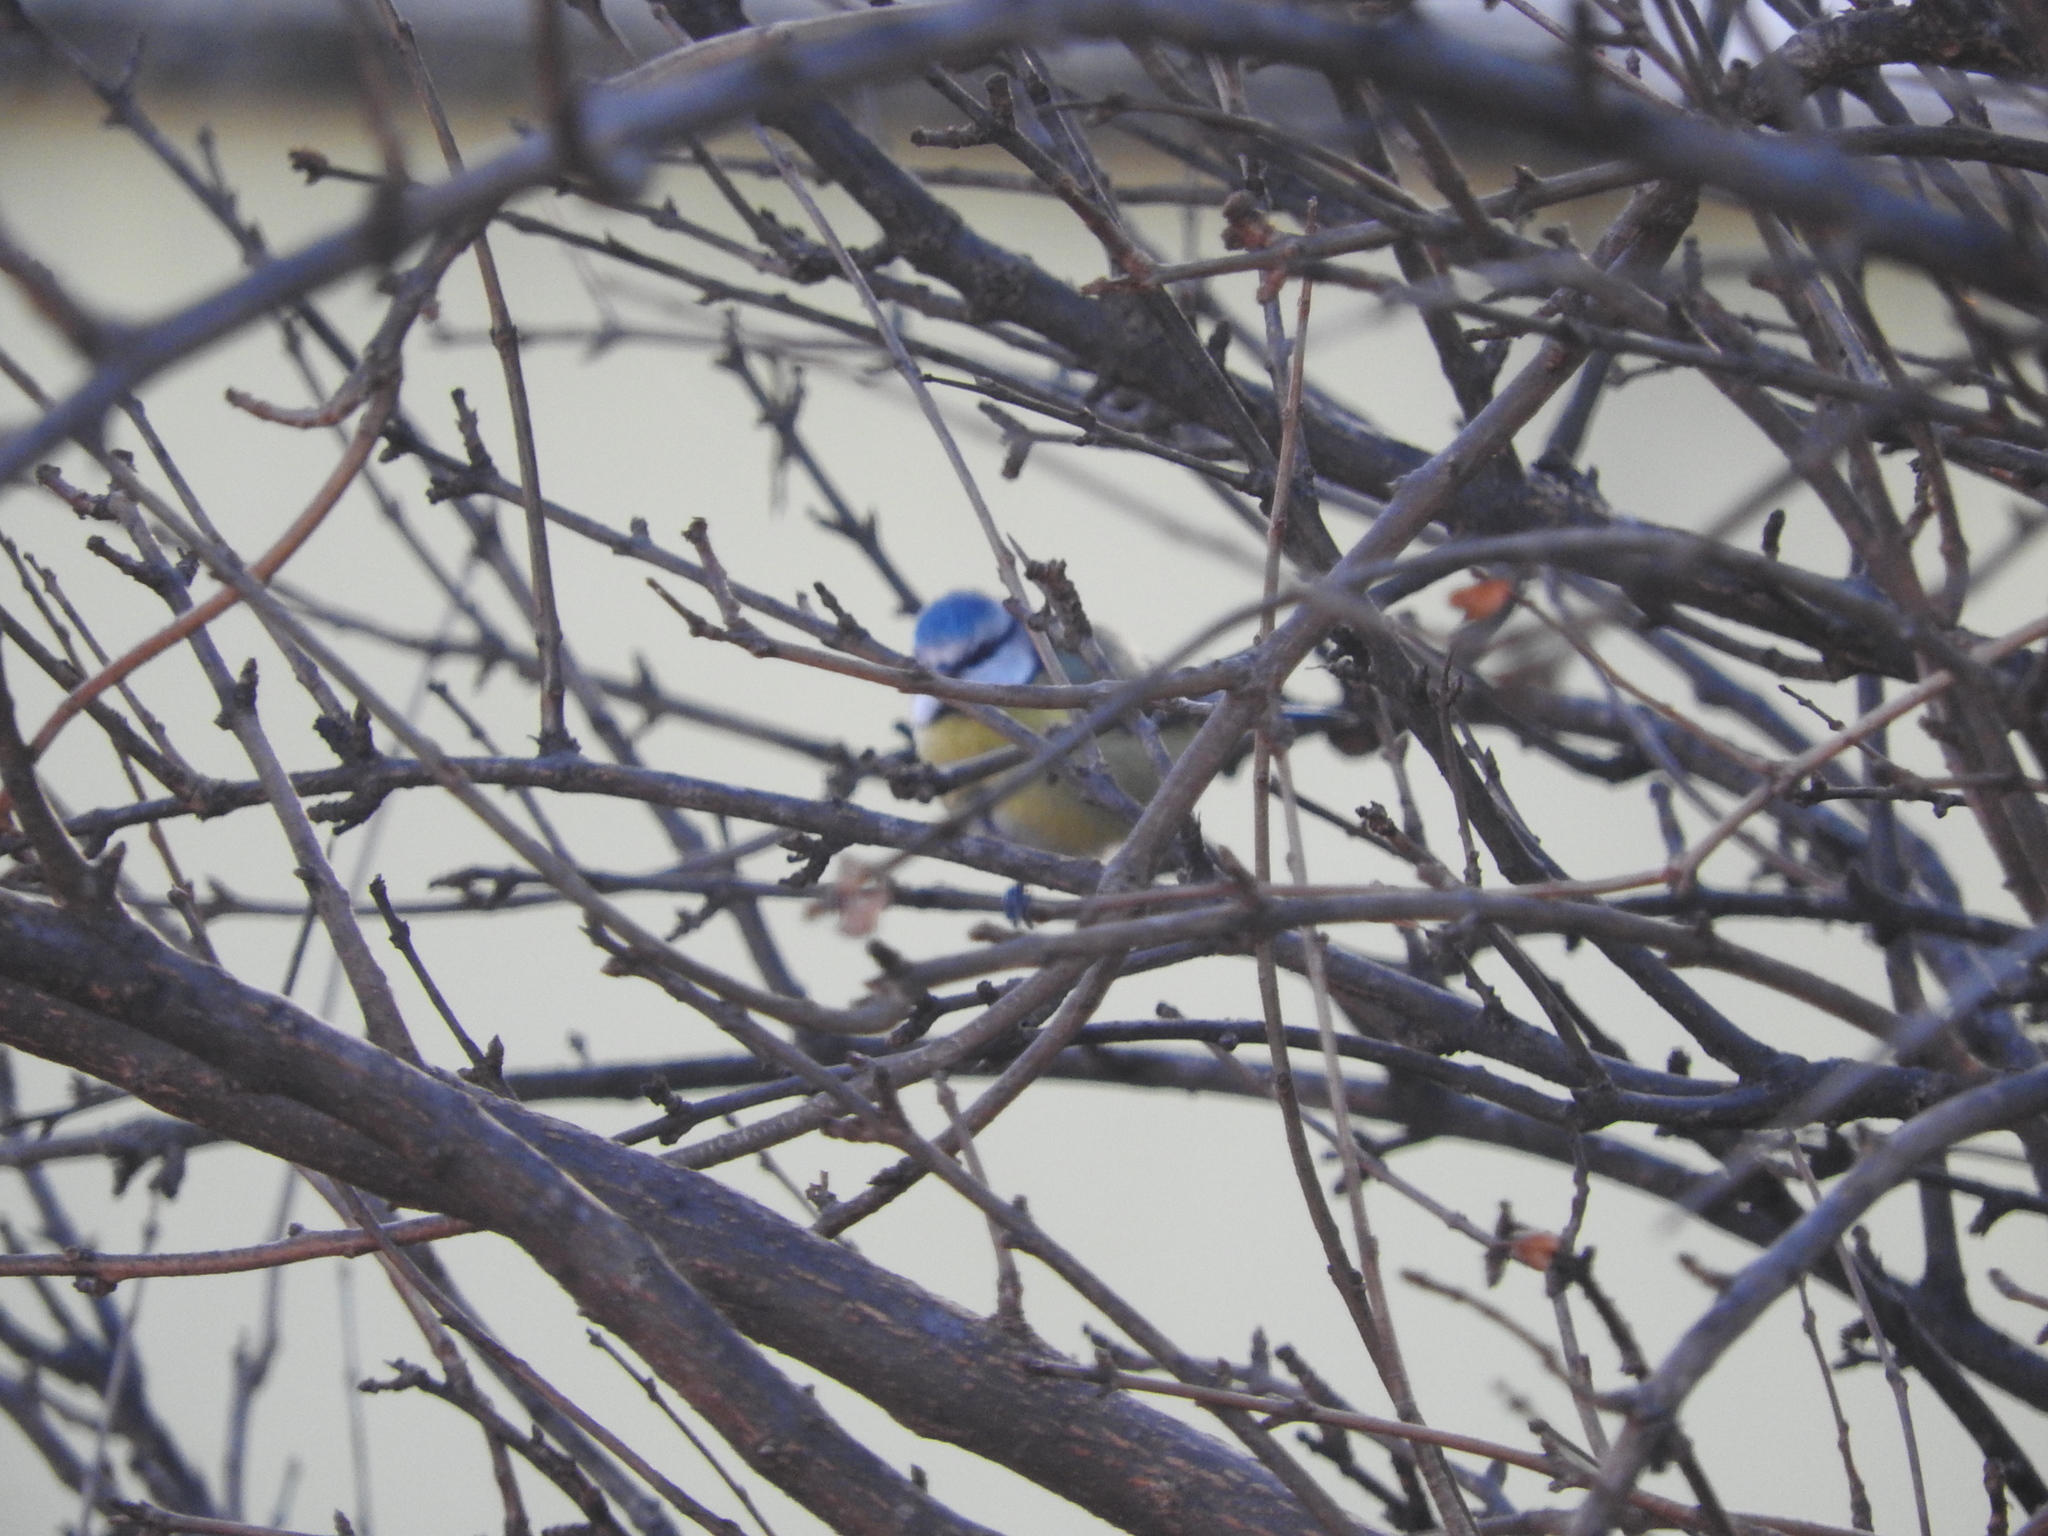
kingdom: Animalia
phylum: Chordata
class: Aves
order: Passeriformes
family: Paridae
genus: Cyanistes
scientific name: Cyanistes caeruleus
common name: Eurasian blue tit
